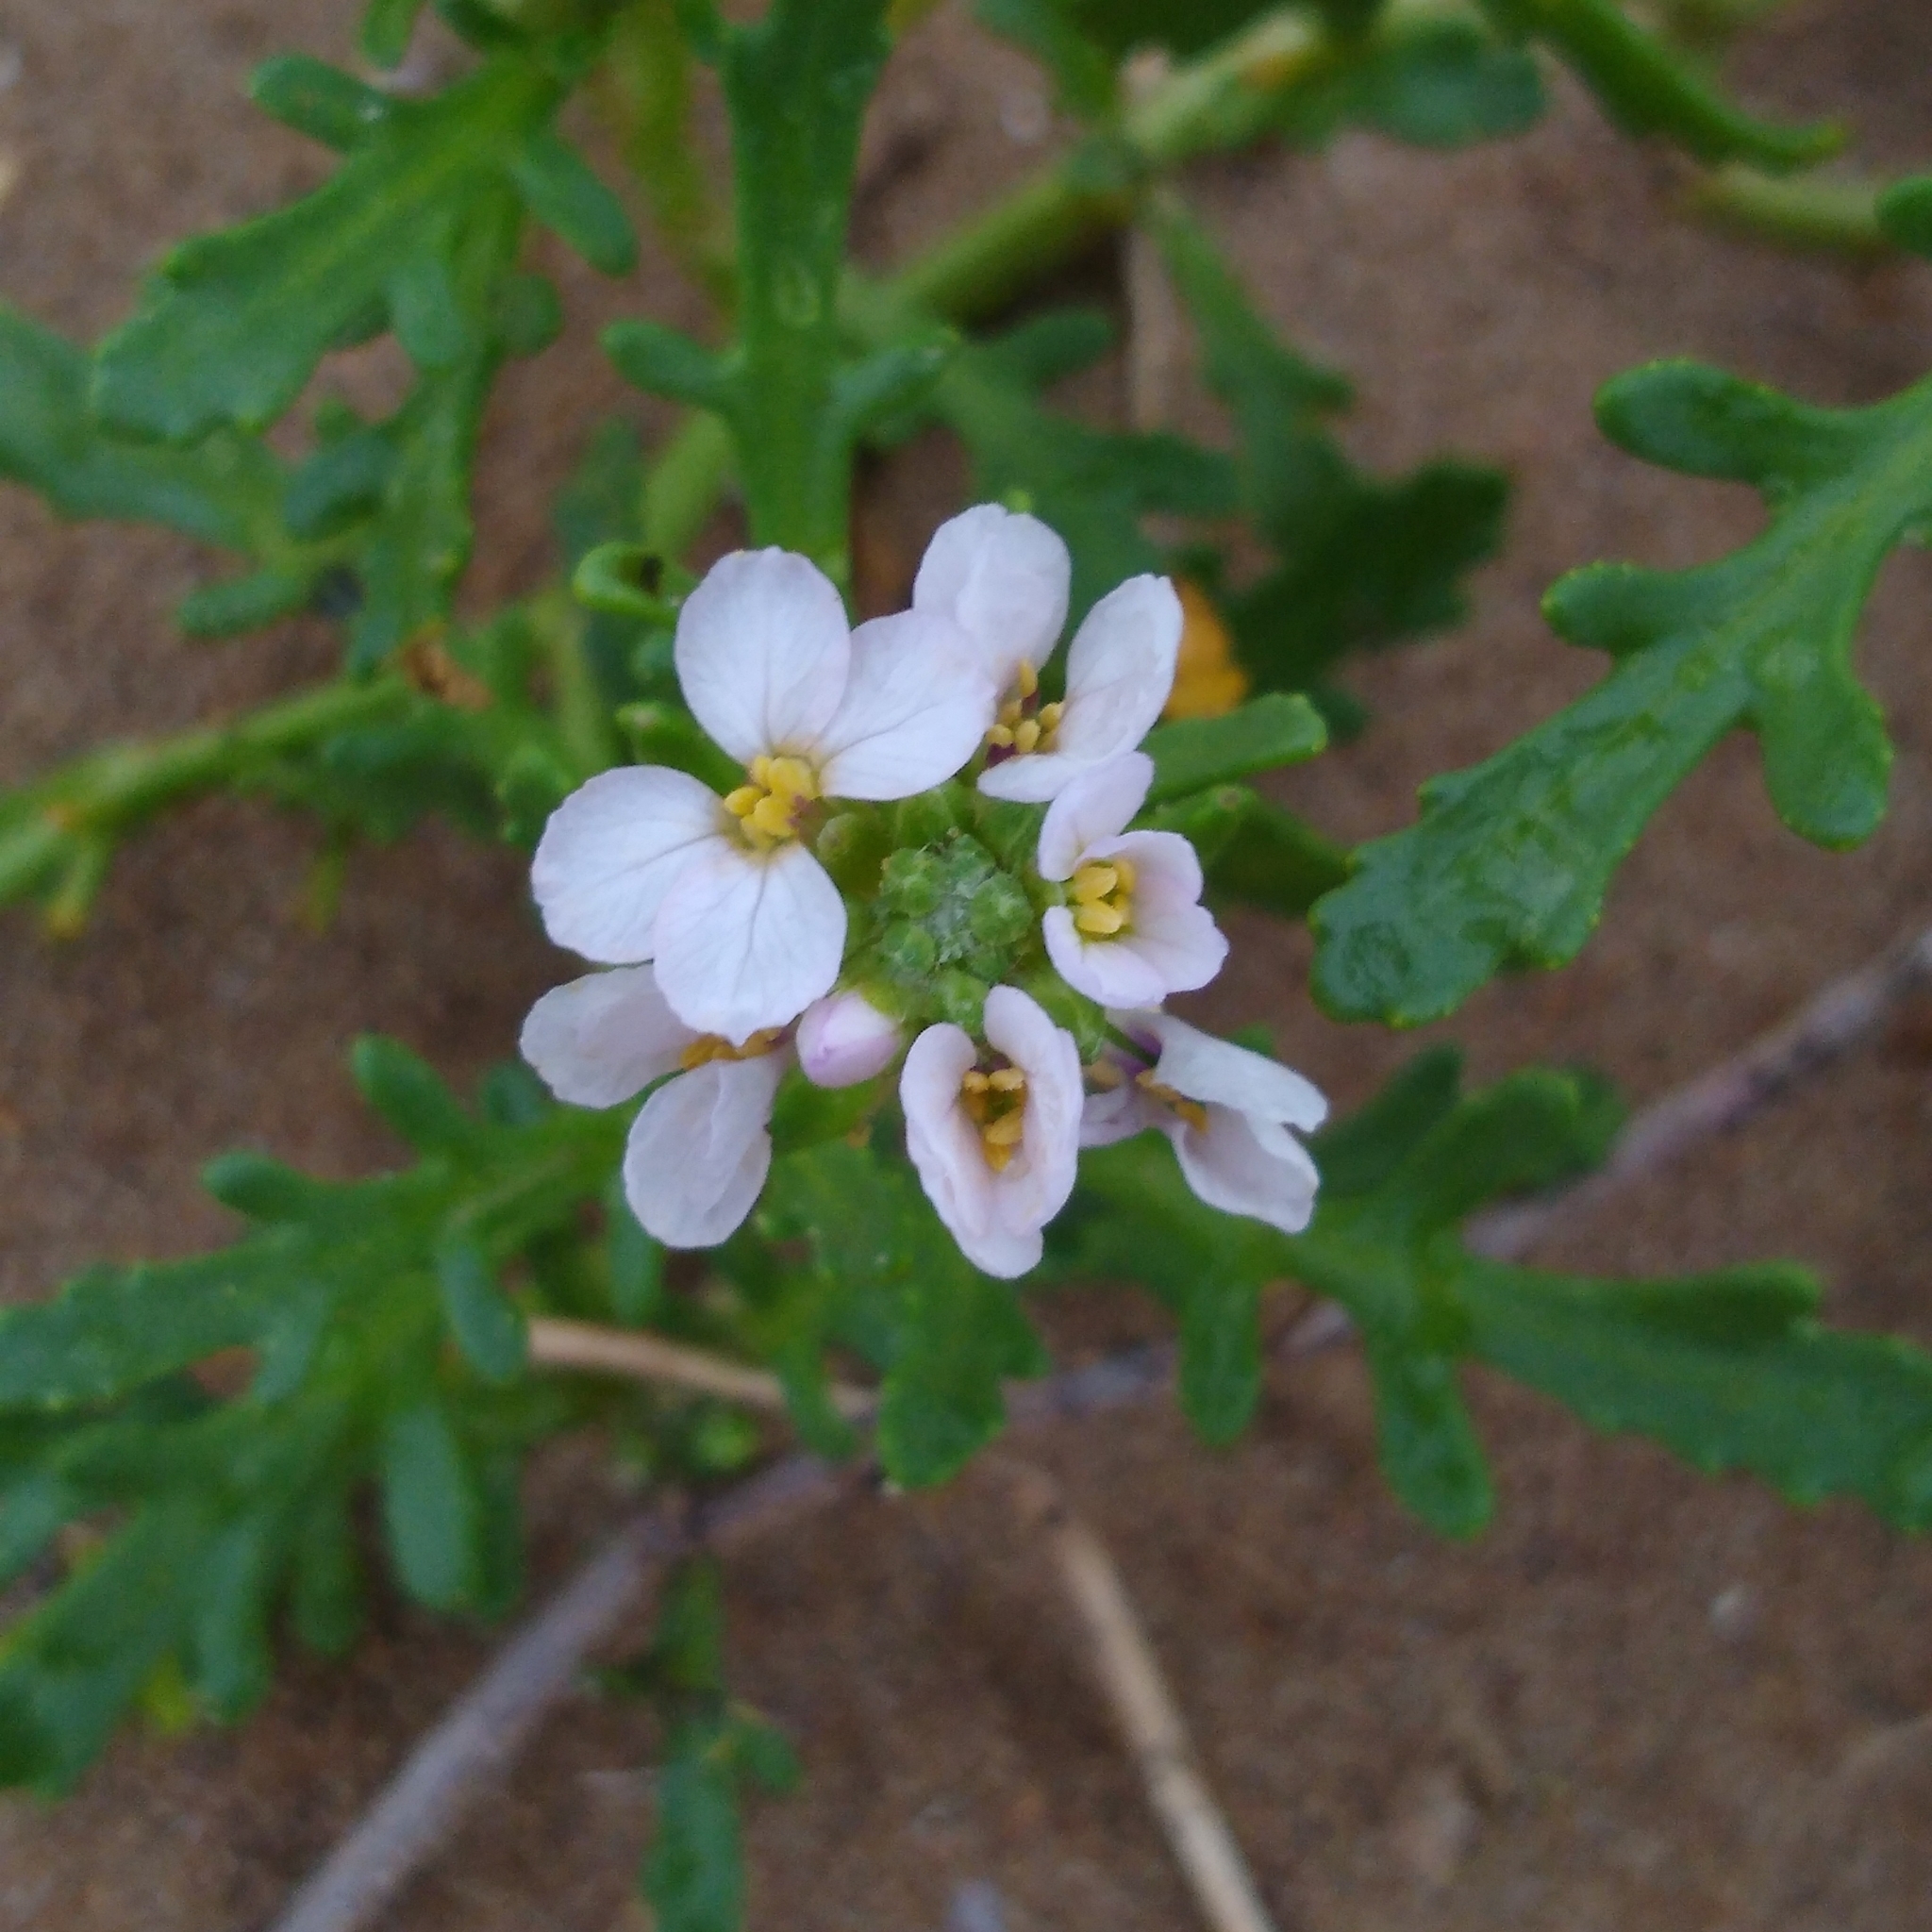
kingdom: Plantae
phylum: Tracheophyta
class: Magnoliopsida
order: Brassicales
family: Brassicaceae
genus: Cakile
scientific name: Cakile maritima
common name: Sea rocket
